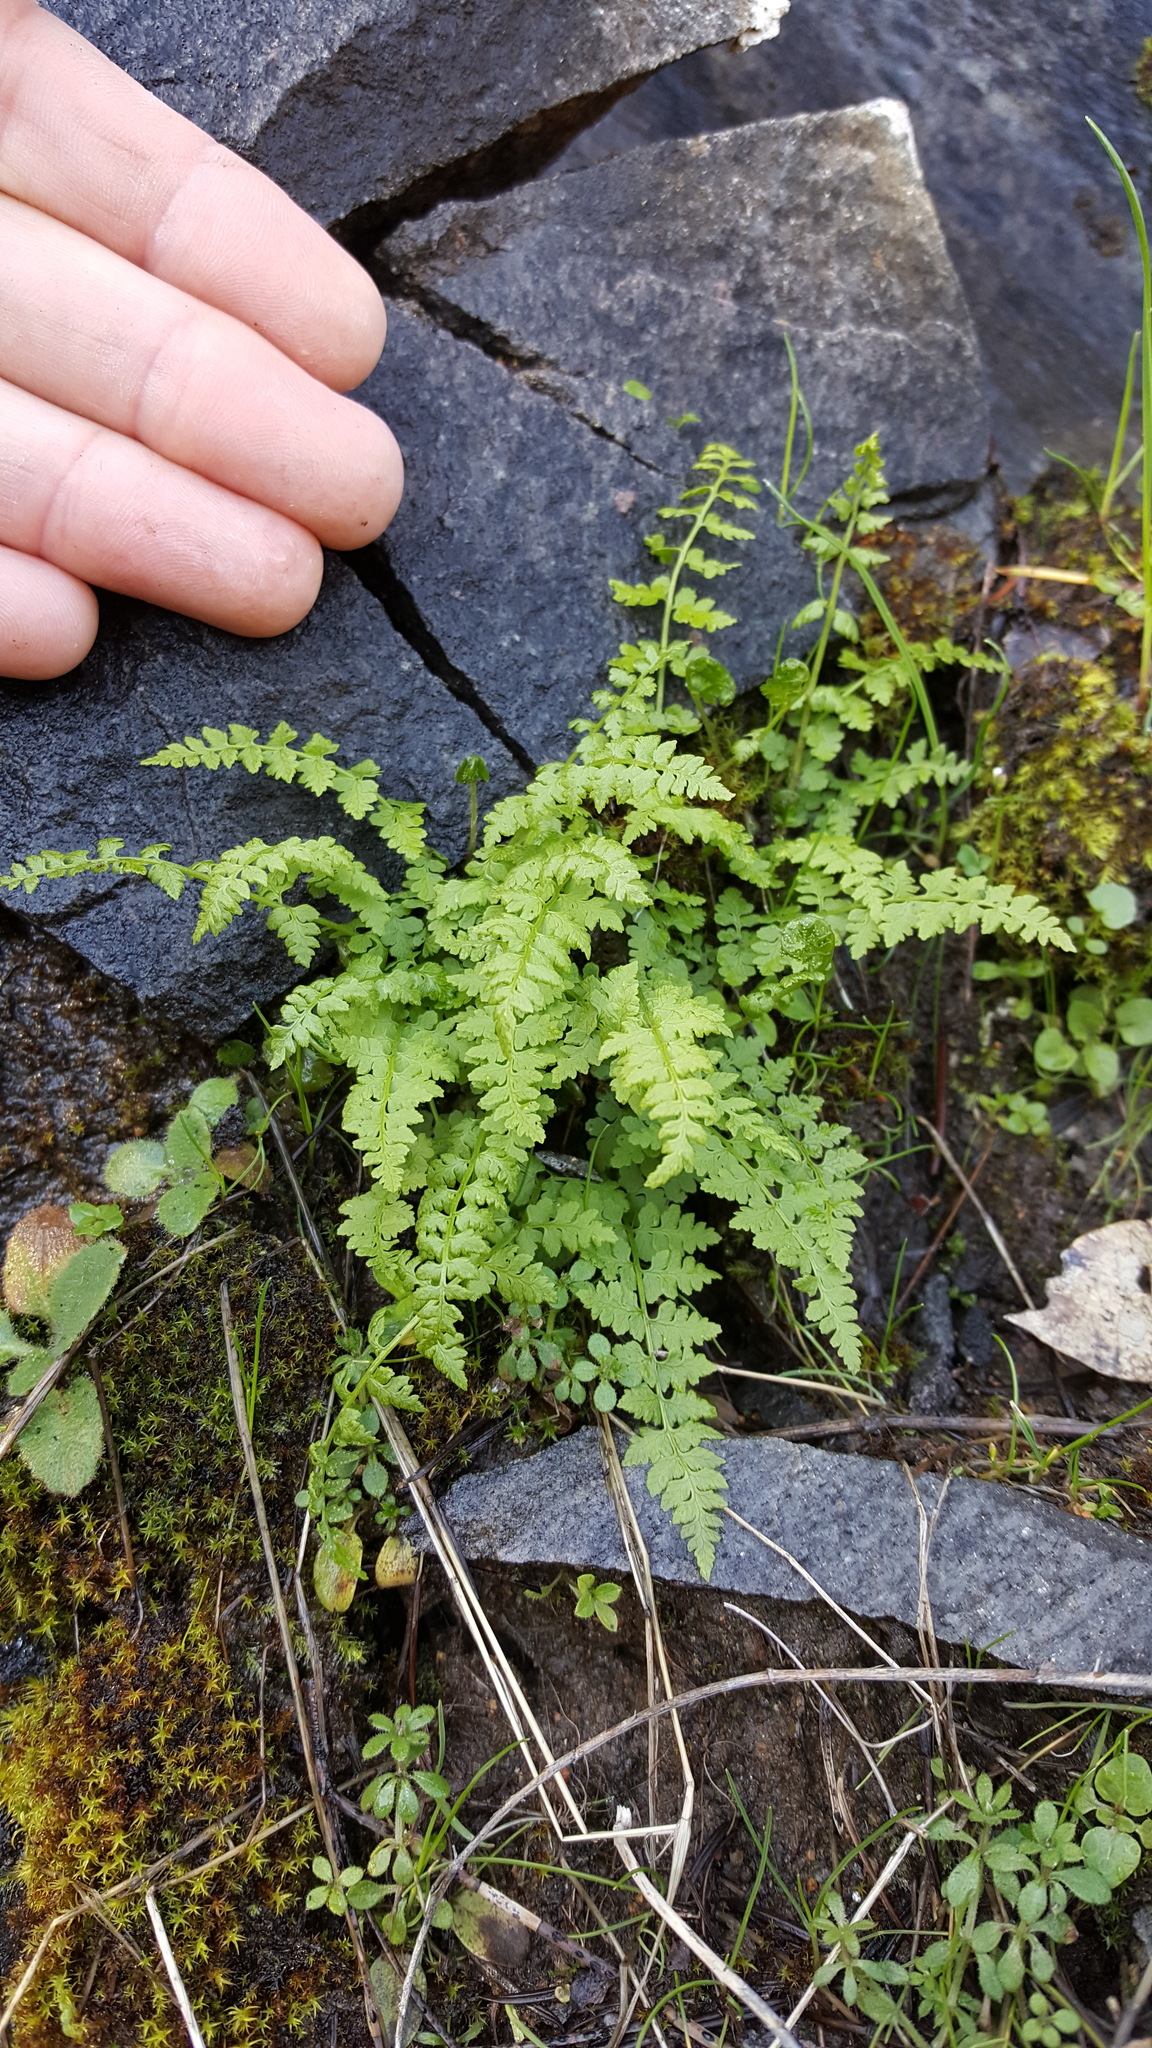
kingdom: Plantae
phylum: Tracheophyta
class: Polypodiopsida
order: Polypodiales
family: Cystopteridaceae
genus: Cystopteris
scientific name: Cystopteris fragilis
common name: Brittle bladder fern
